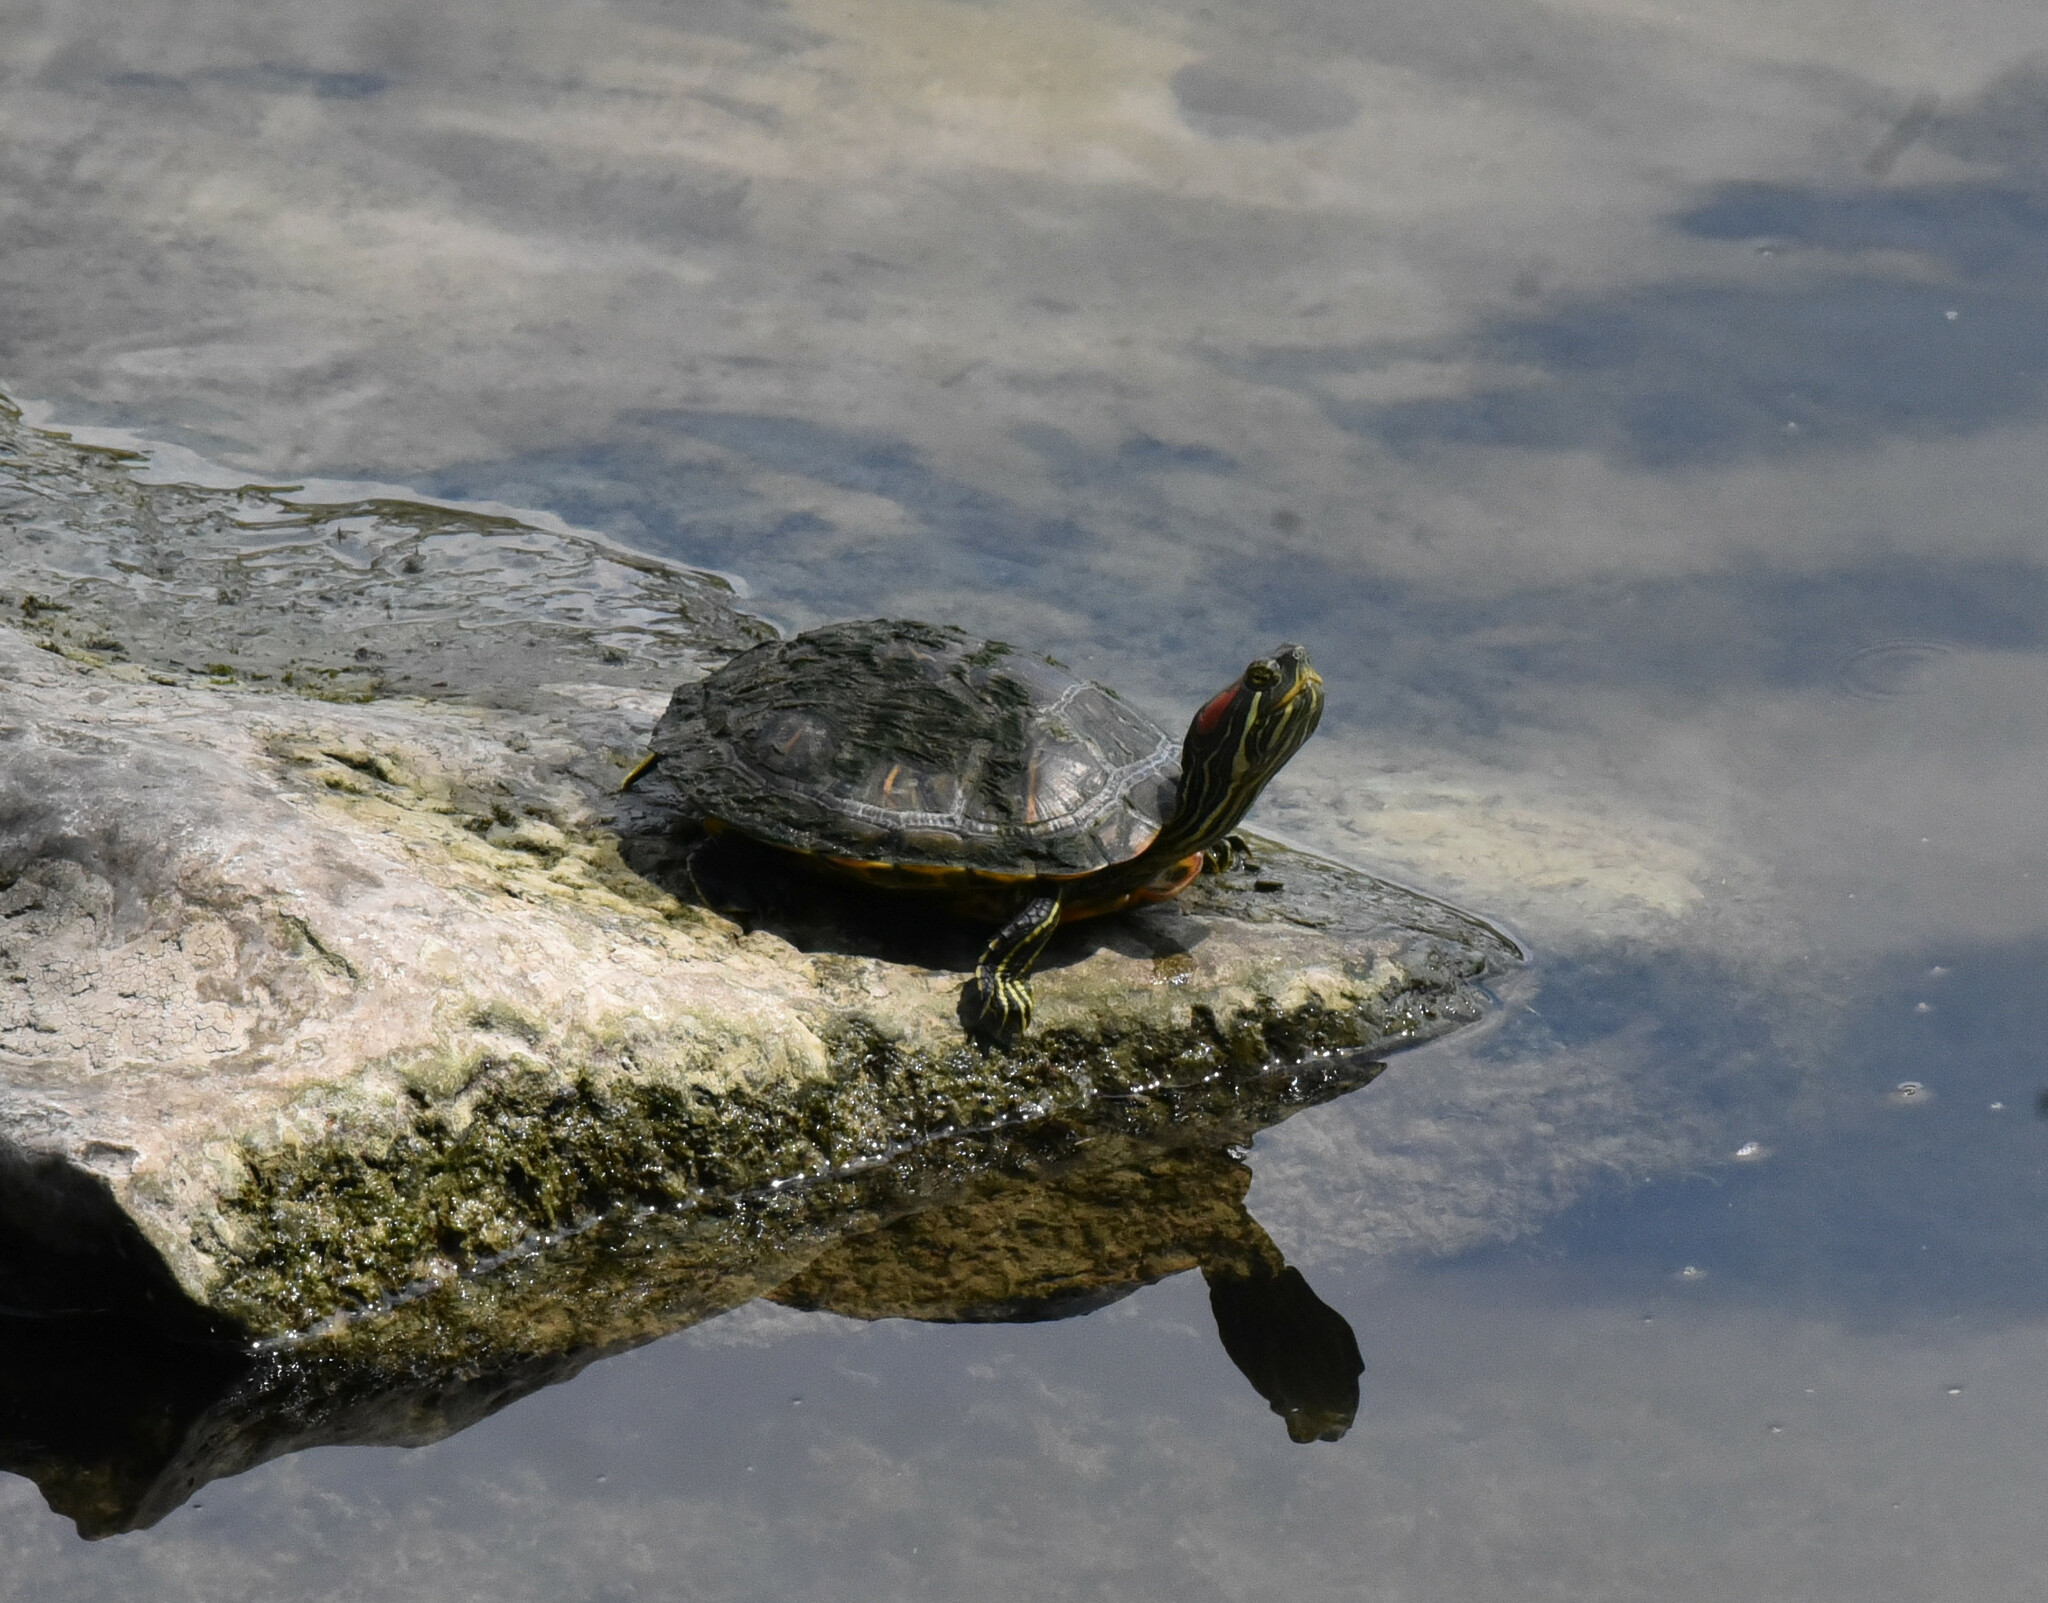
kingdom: Animalia
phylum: Chordata
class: Testudines
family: Emydidae
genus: Trachemys
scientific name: Trachemys scripta
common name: Slider
